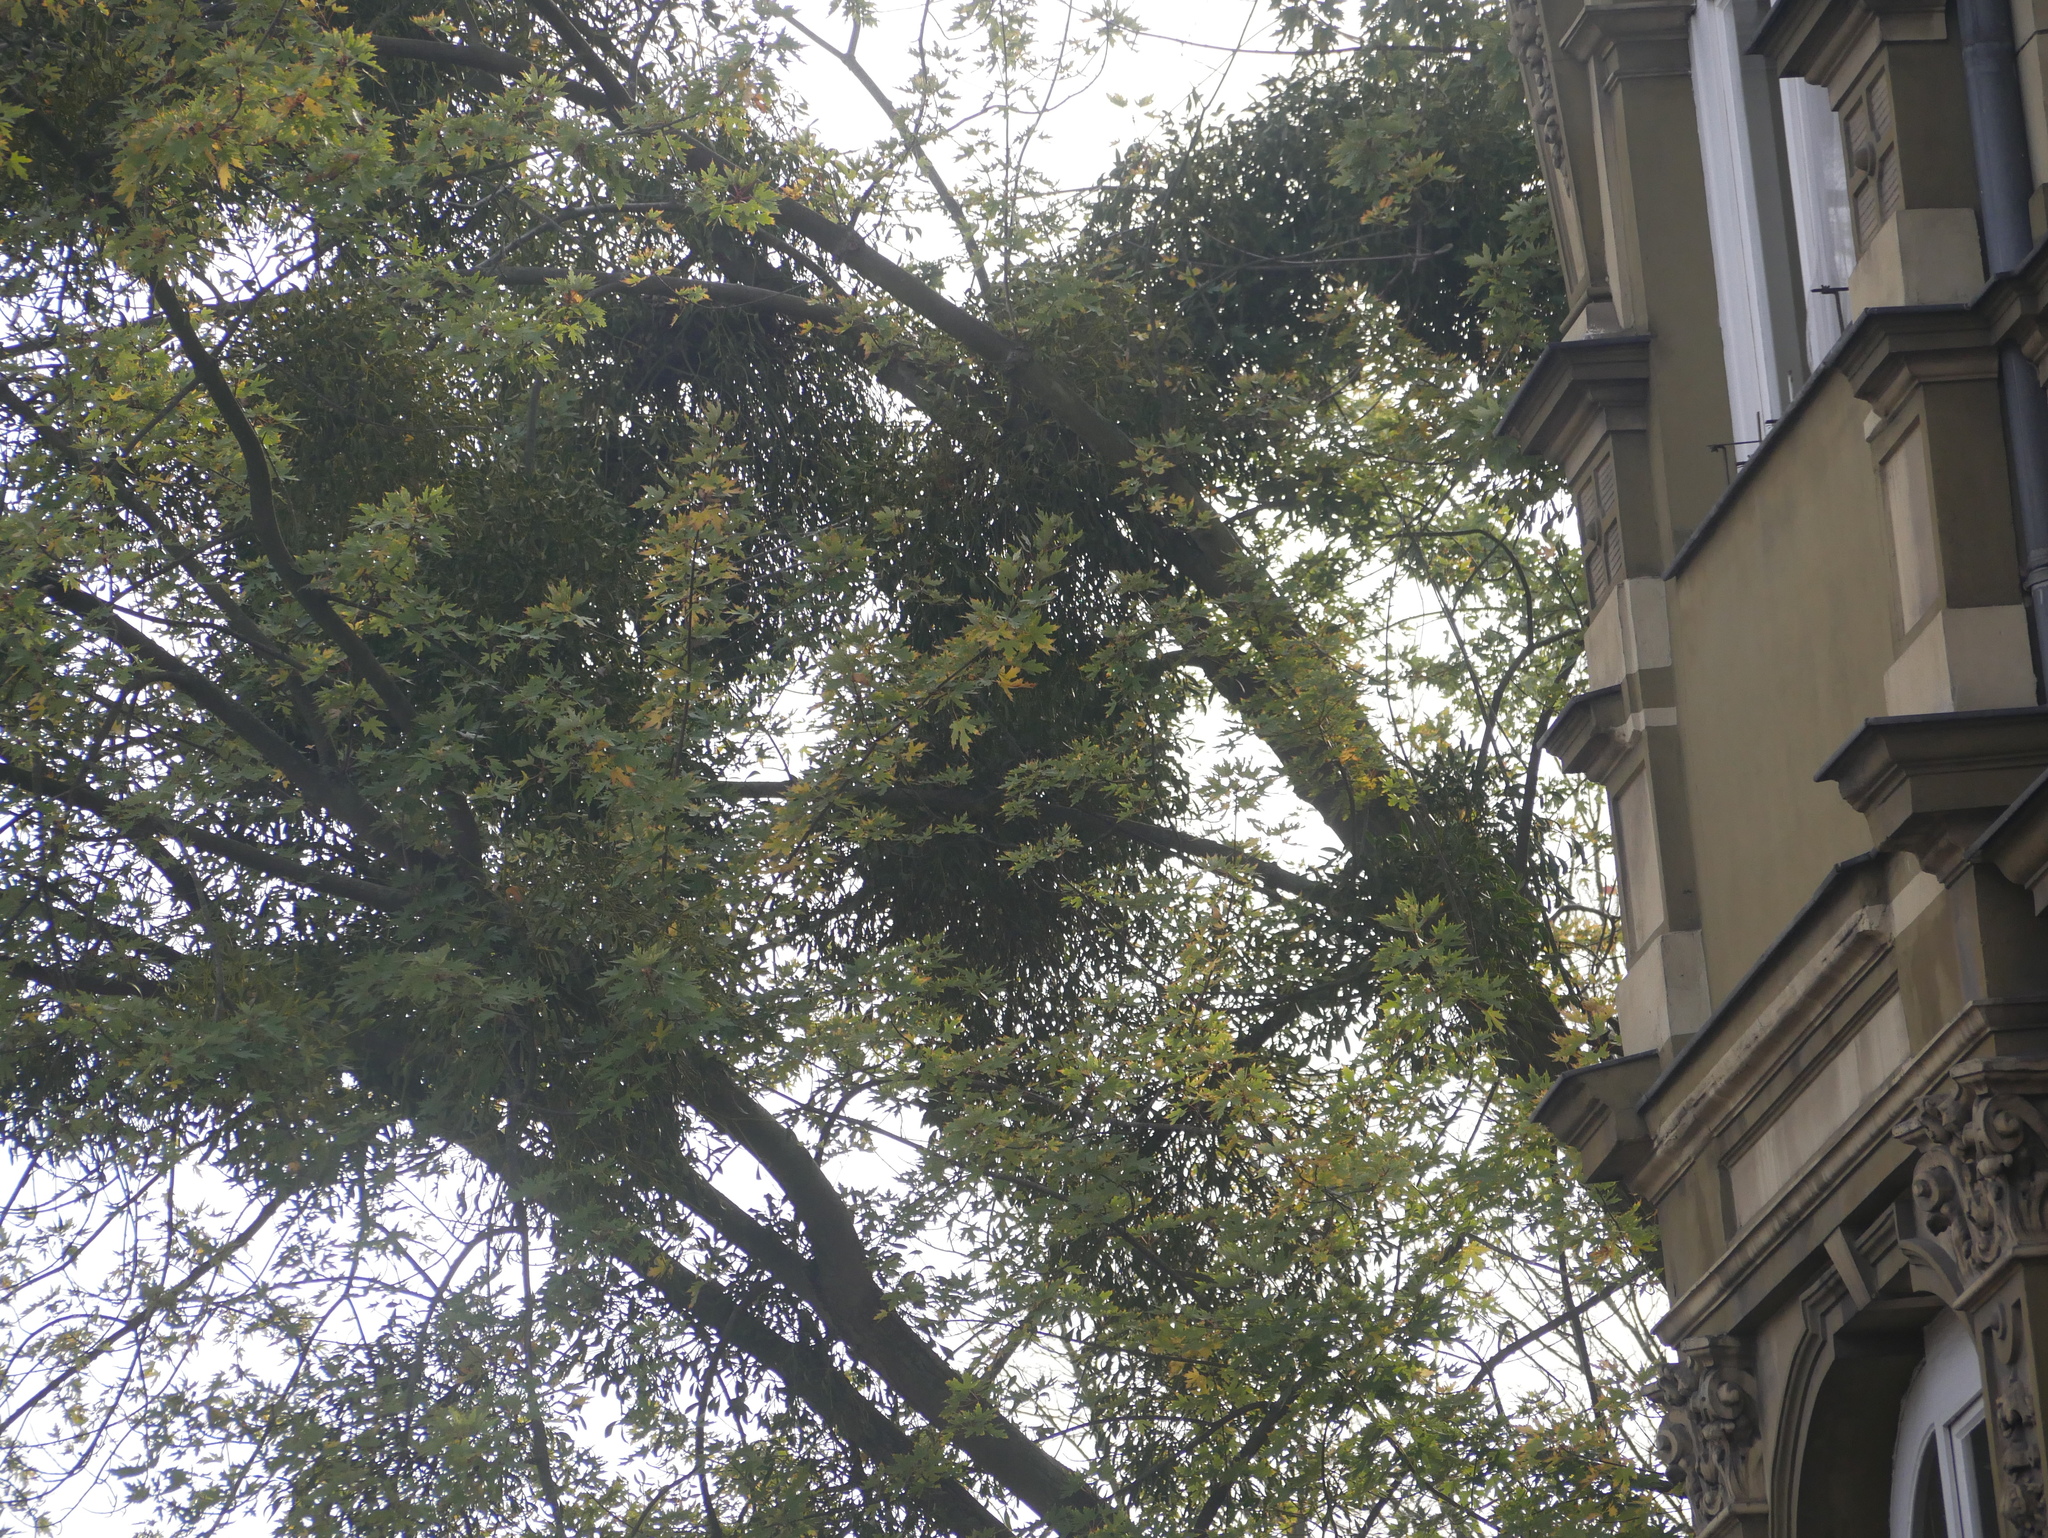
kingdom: Plantae
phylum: Tracheophyta
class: Magnoliopsida
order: Santalales
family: Viscaceae
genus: Viscum
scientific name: Viscum album
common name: Mistletoe
